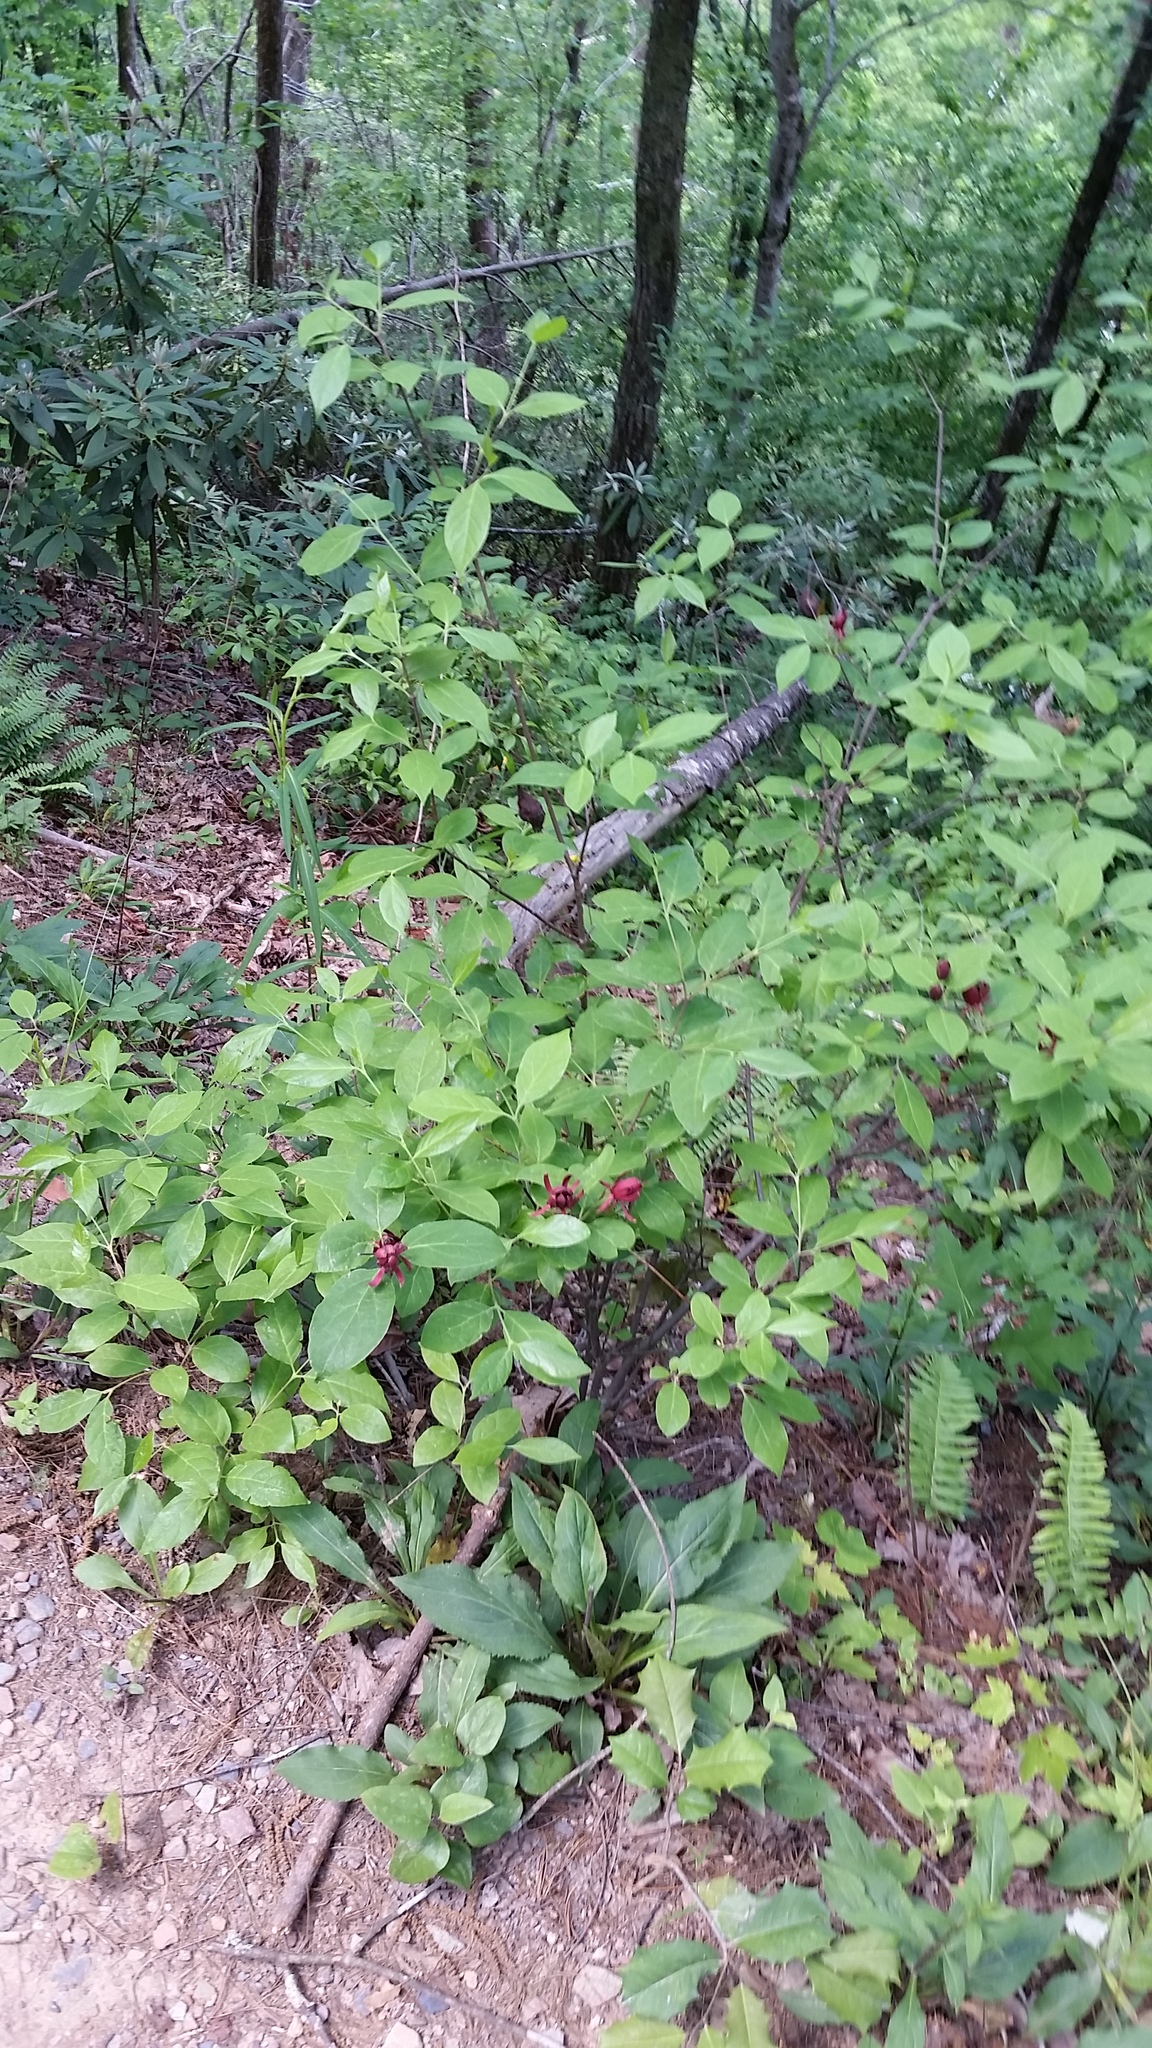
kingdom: Plantae
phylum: Tracheophyta
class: Magnoliopsida
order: Laurales
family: Calycanthaceae
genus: Calycanthus
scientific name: Calycanthus floridus
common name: Carolina-allspice
